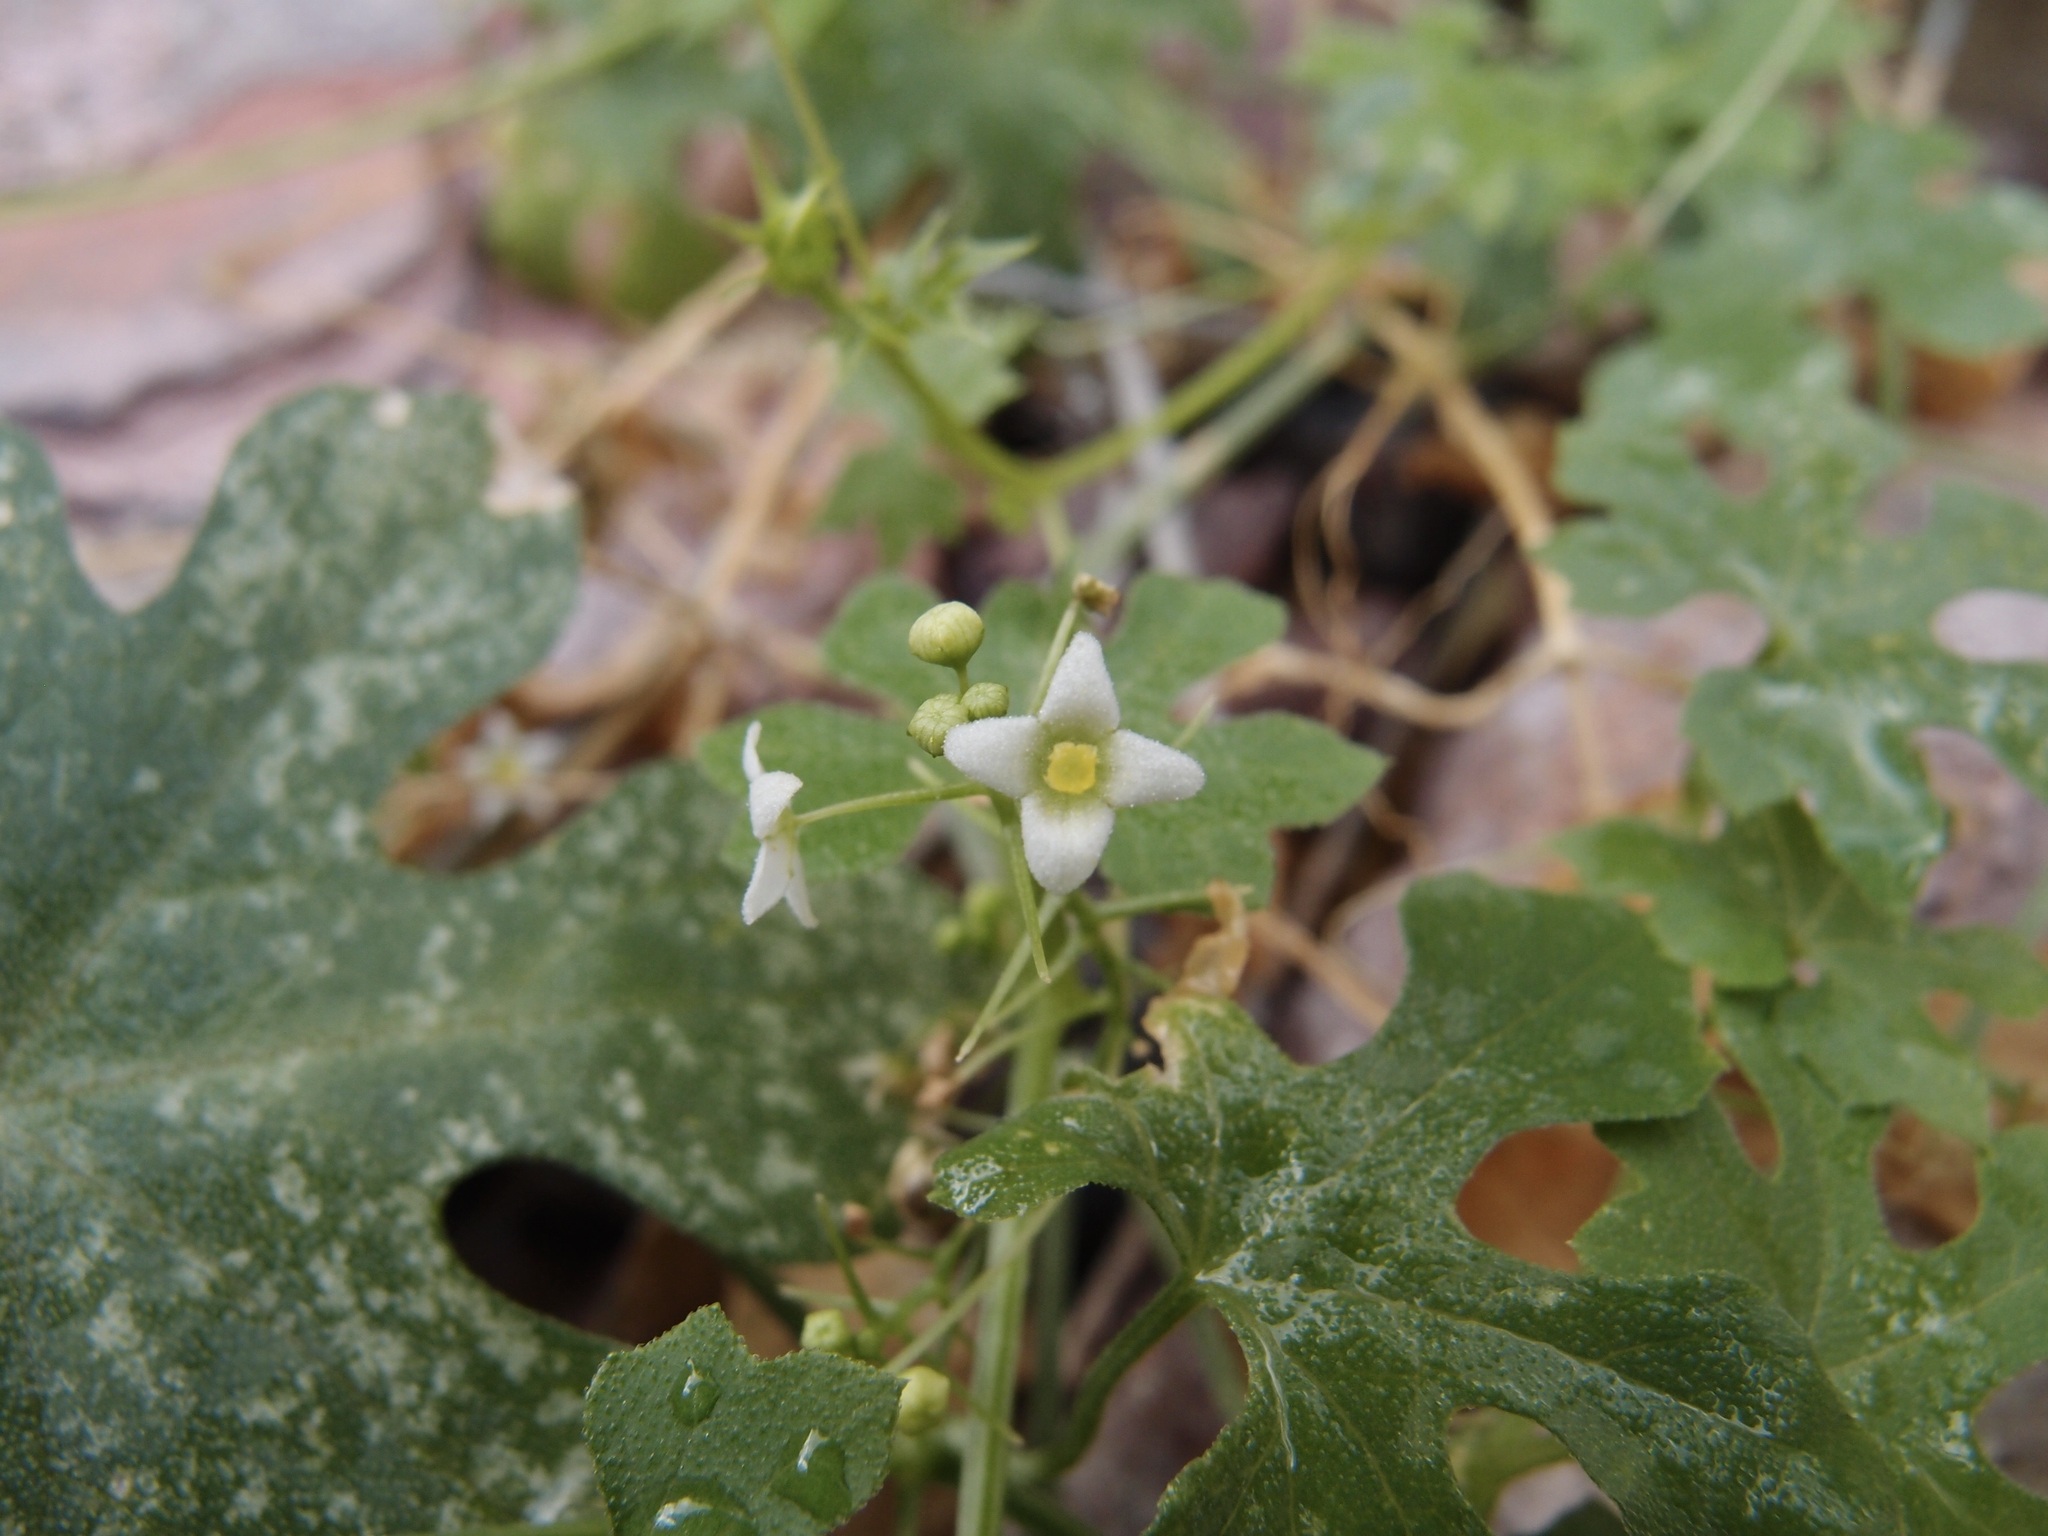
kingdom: Plantae
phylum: Tracheophyta
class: Magnoliopsida
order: Cucurbitales
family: Cucurbitaceae
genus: Echinopepon
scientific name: Echinopepon insularis
